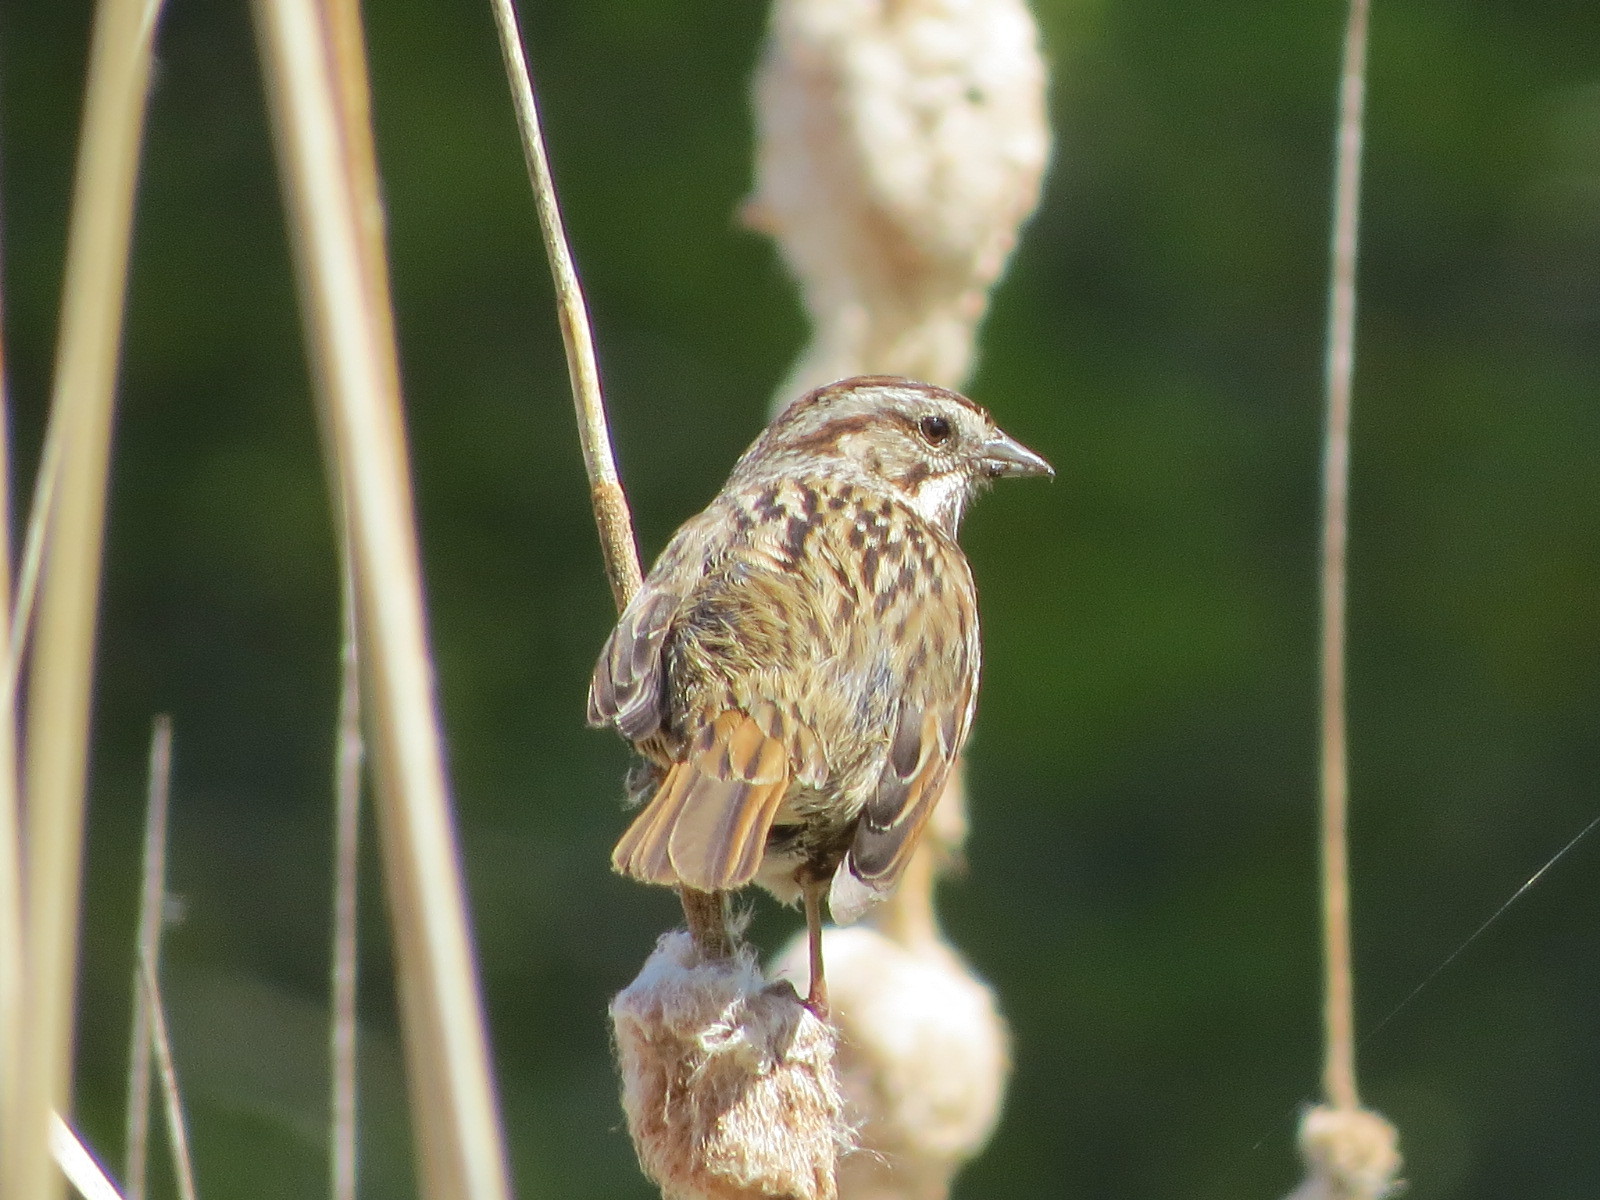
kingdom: Animalia
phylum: Chordata
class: Aves
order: Passeriformes
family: Passerellidae
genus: Melospiza
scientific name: Melospiza melodia
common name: Song sparrow
